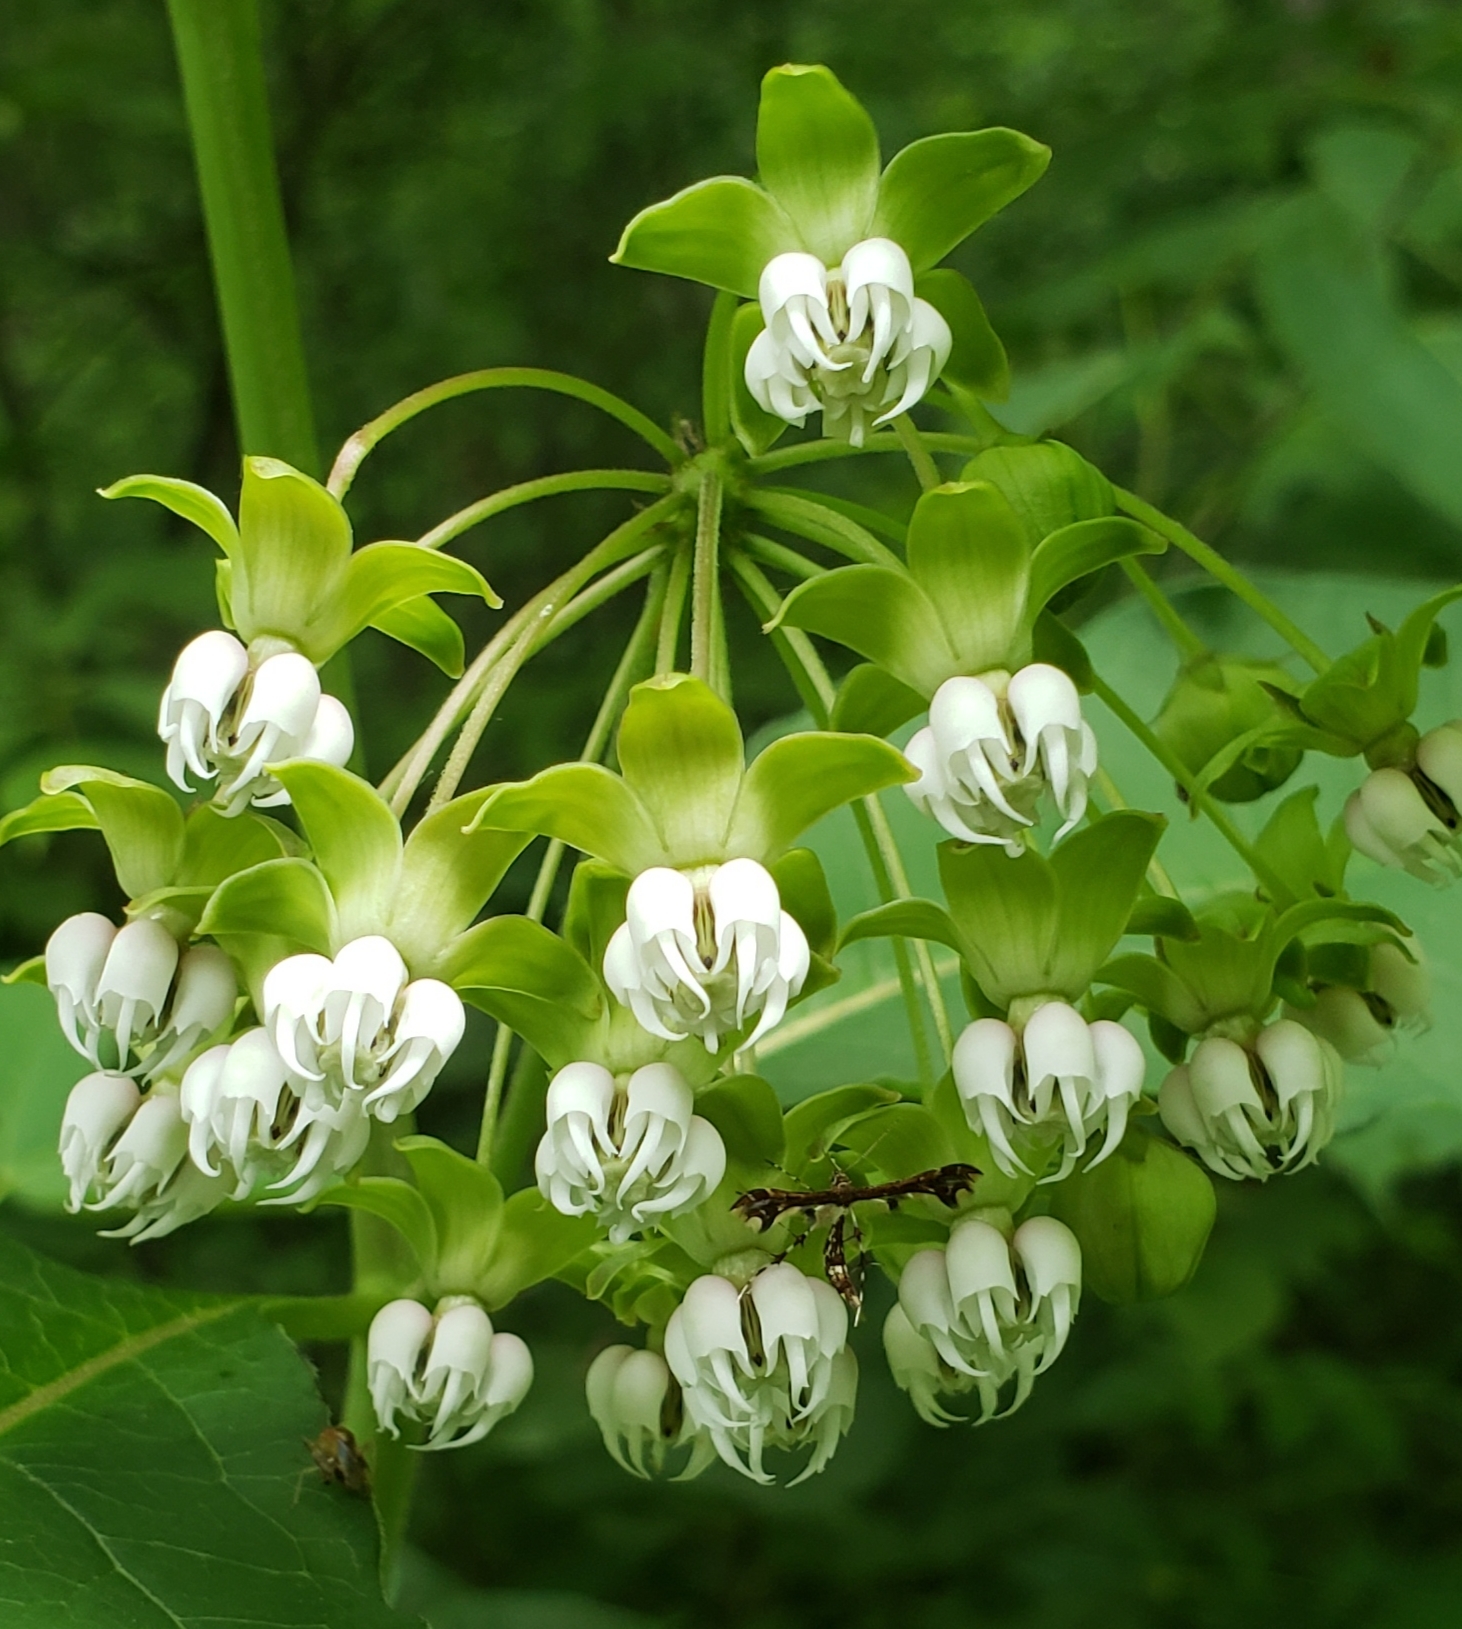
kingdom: Plantae
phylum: Tracheophyta
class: Magnoliopsida
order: Gentianales
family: Apocynaceae
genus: Asclepias
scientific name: Asclepias exaltata
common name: Poke milkweed
